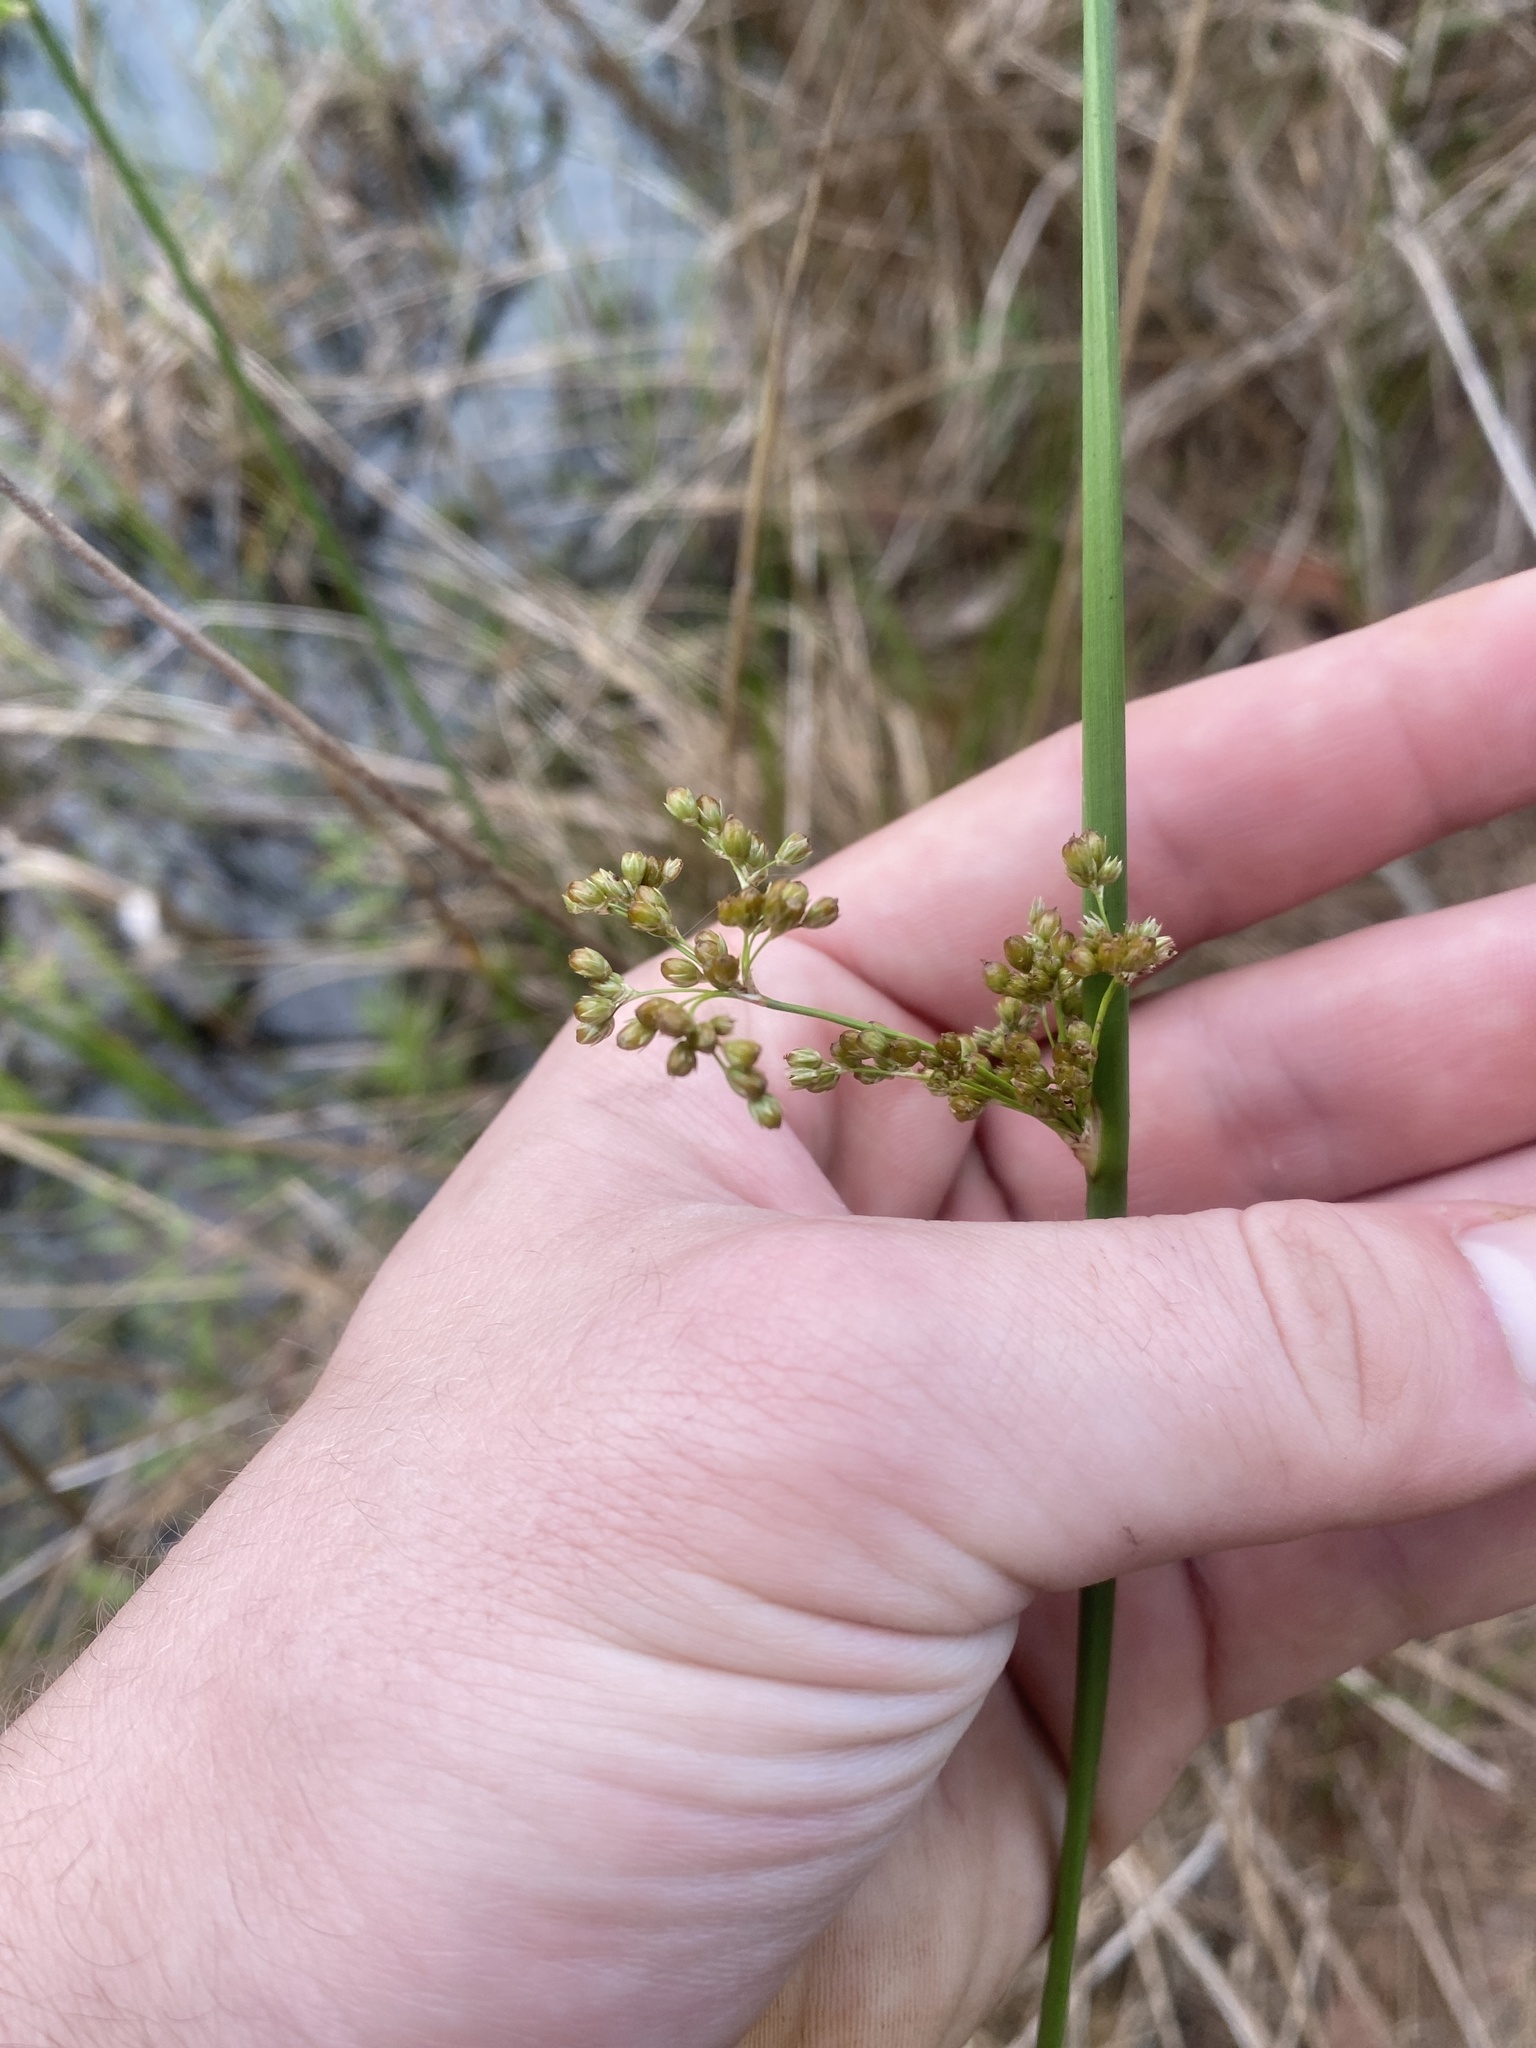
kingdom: Plantae
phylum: Tracheophyta
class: Liliopsida
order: Poales
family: Juncaceae
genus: Juncus
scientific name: Juncus effusus
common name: Soft rush
